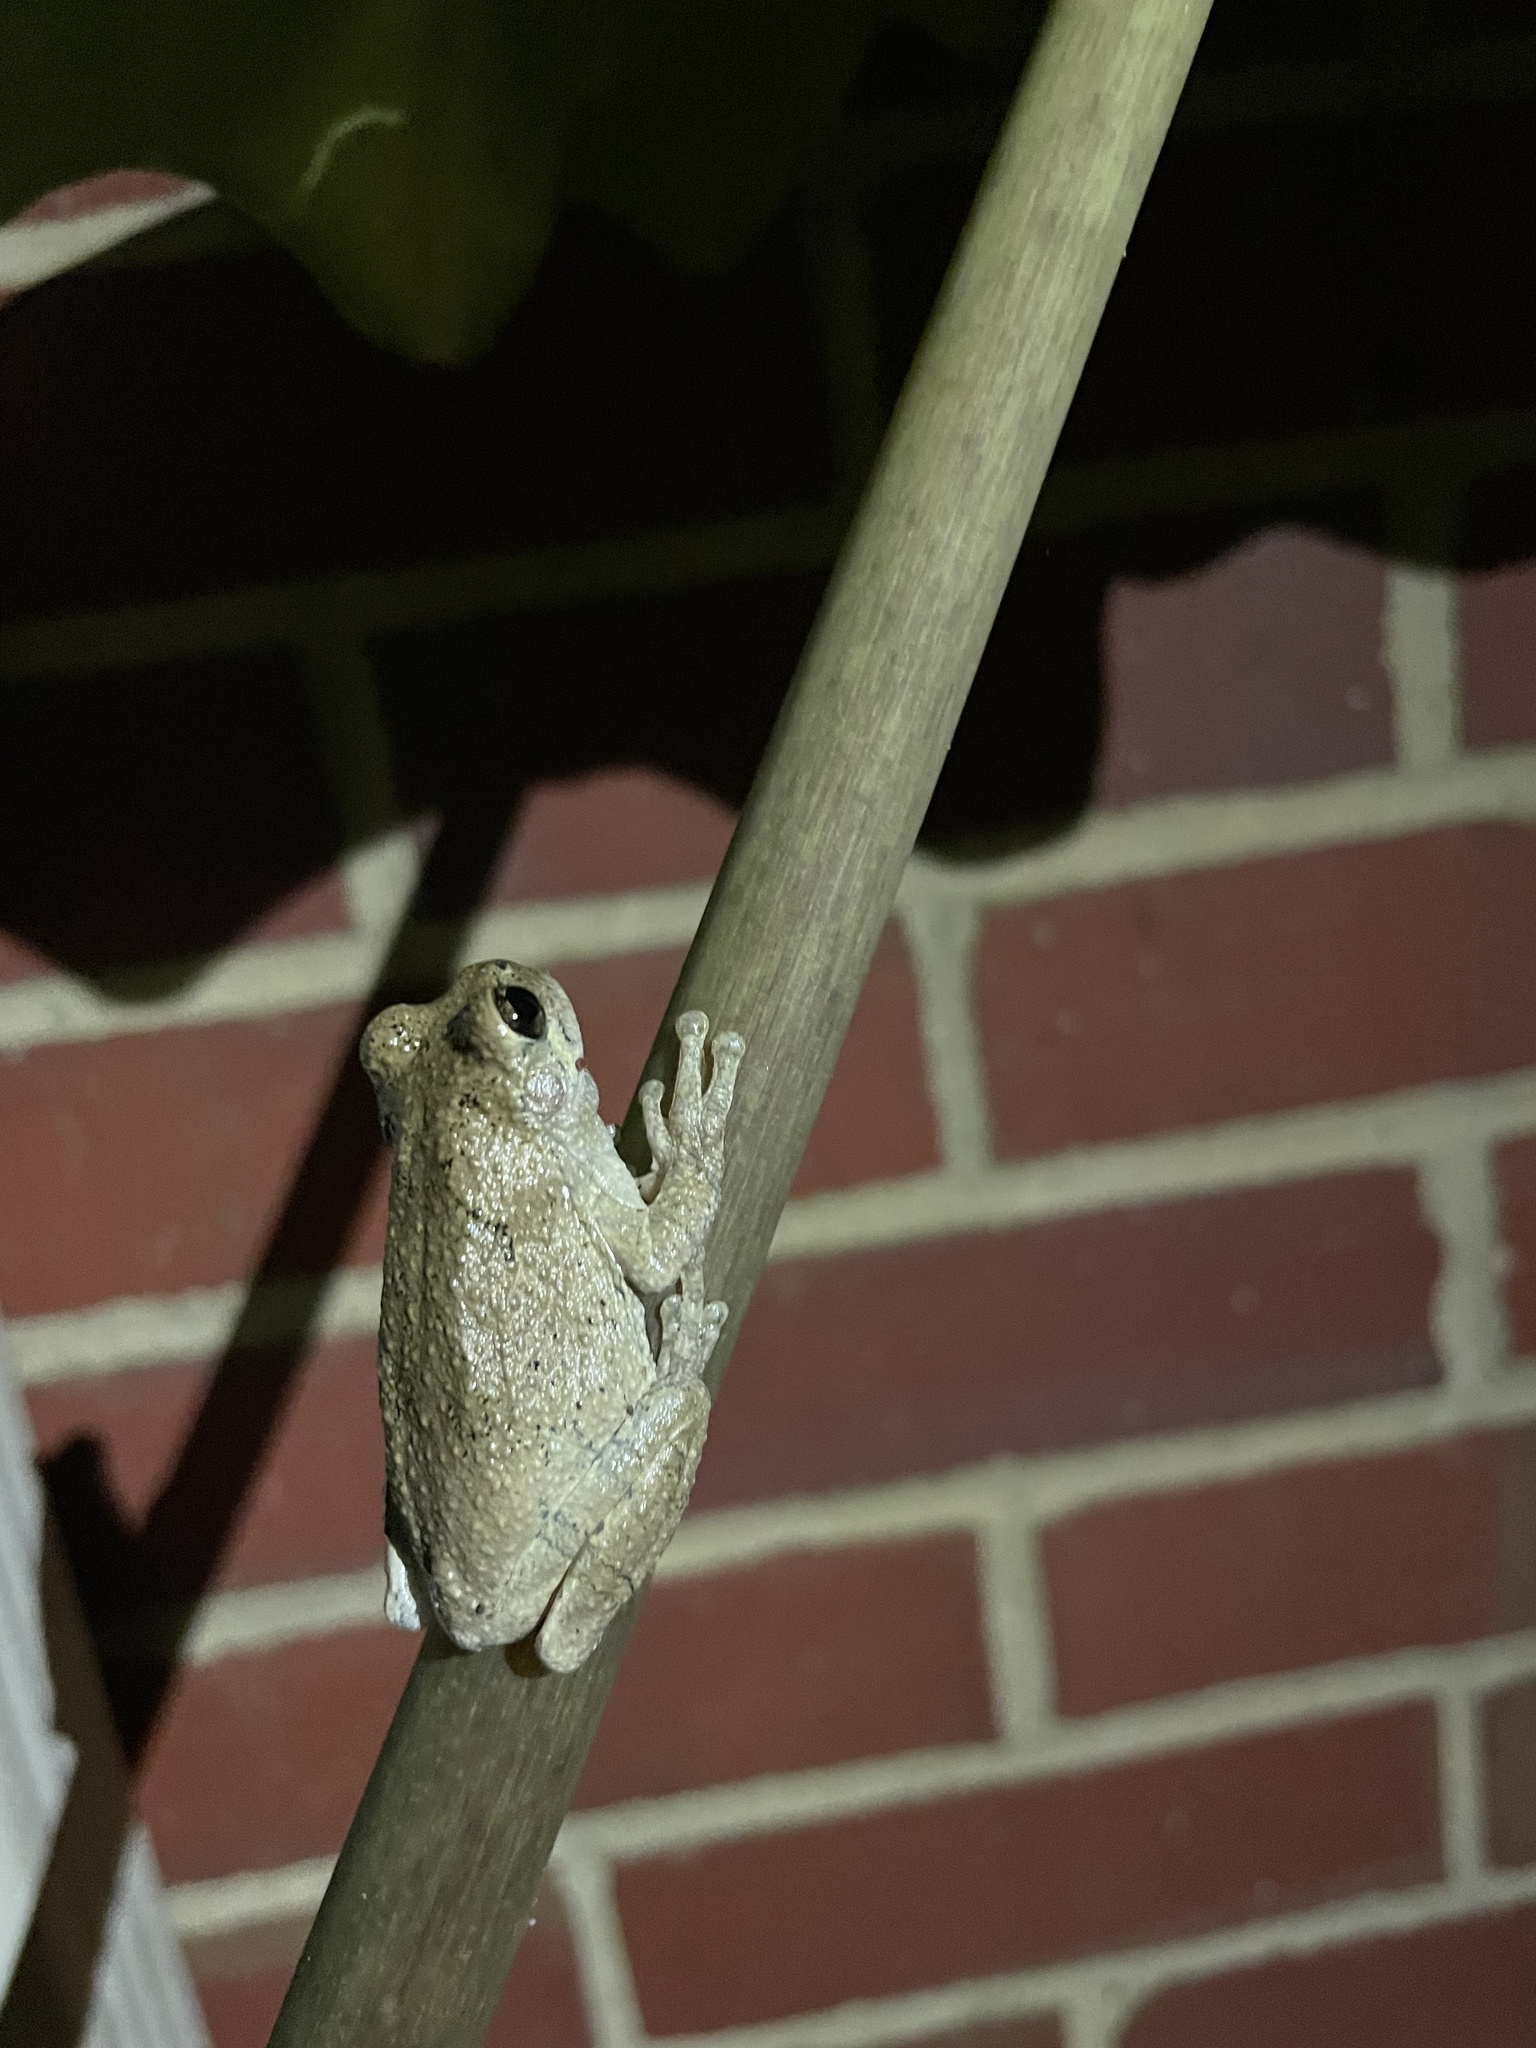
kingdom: Animalia
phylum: Chordata
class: Amphibia
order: Anura
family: Hylidae
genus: Dryophytes
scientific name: Dryophytes chrysoscelis
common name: Cope's gray treefrog
